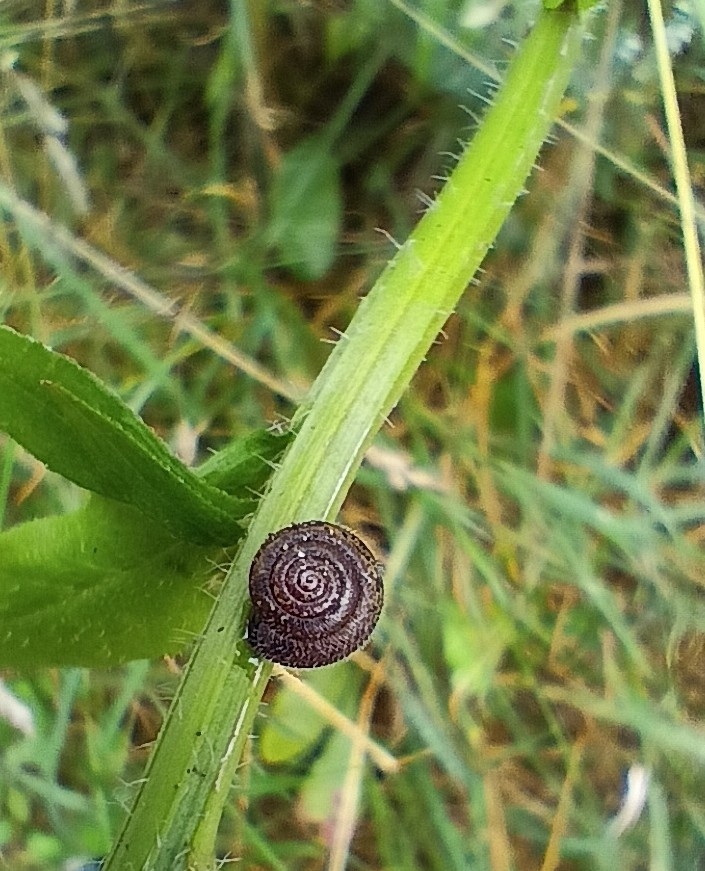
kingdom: Animalia
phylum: Mollusca
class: Gastropoda
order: Stylommatophora
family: Hygromiidae
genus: Trochulus
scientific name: Trochulus hispidus
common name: Hairy snail
